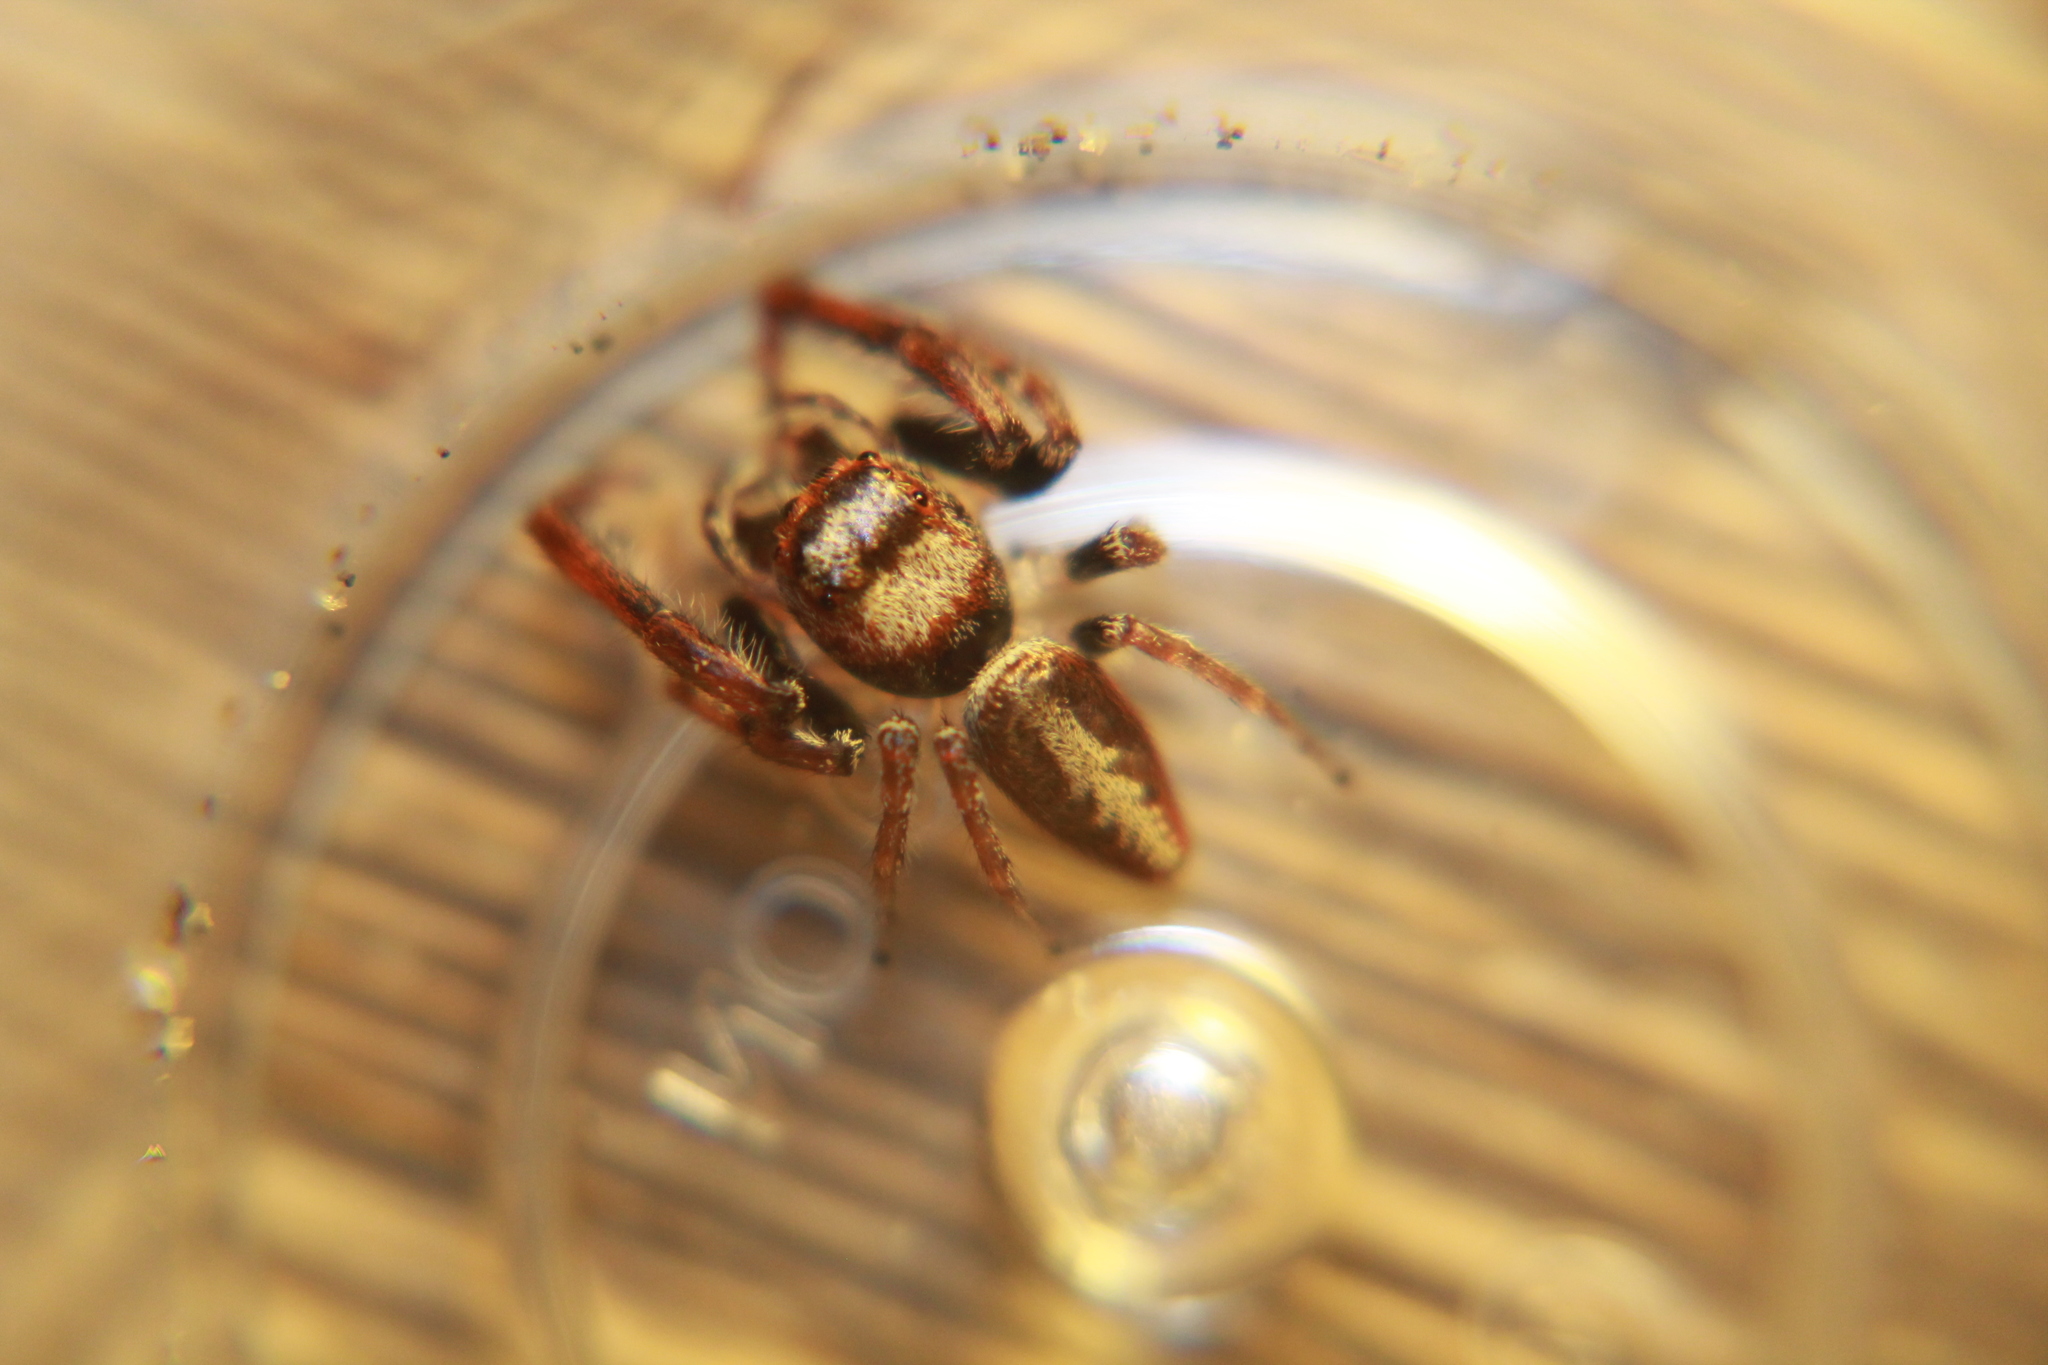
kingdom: Animalia
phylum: Arthropoda
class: Arachnida
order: Araneae
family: Salticidae
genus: Opisthoncus
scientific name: Opisthoncus polyphemus
